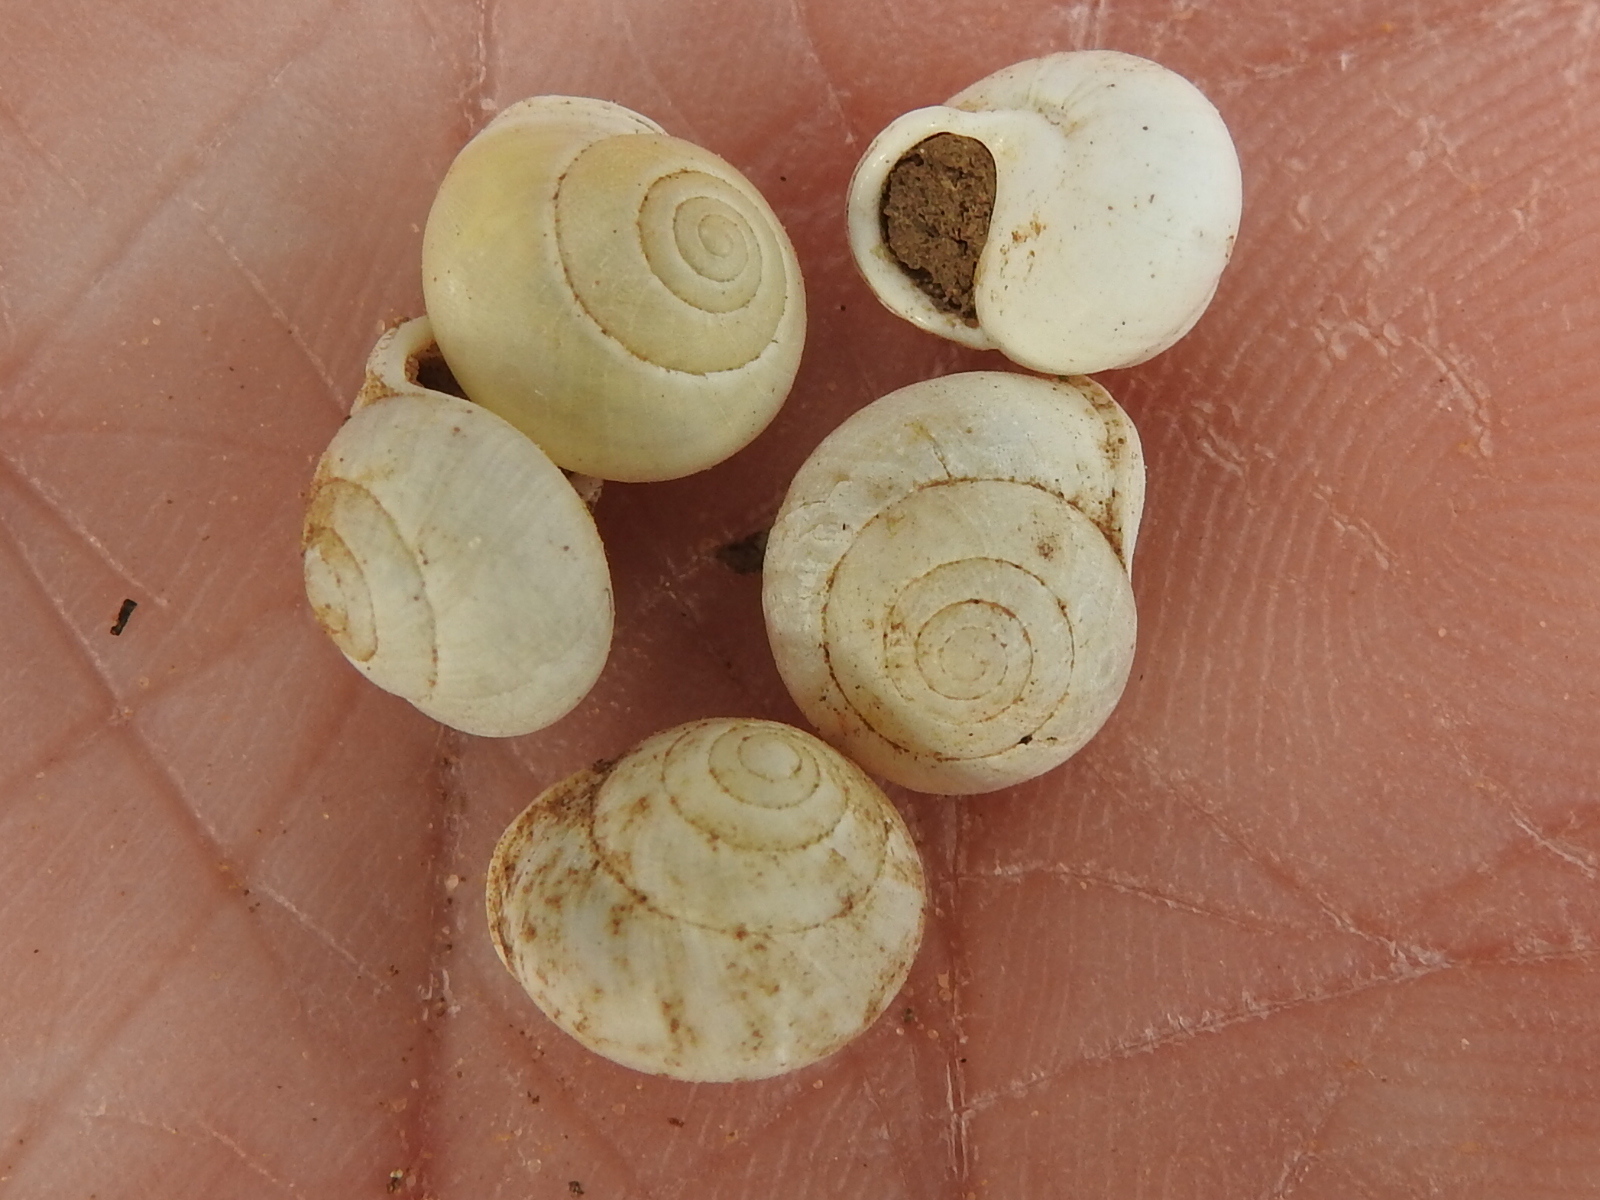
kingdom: Animalia
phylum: Mollusca
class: Gastropoda
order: Cycloneritida
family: Helicinidae
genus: Helicina
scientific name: Helicina orbiculata
